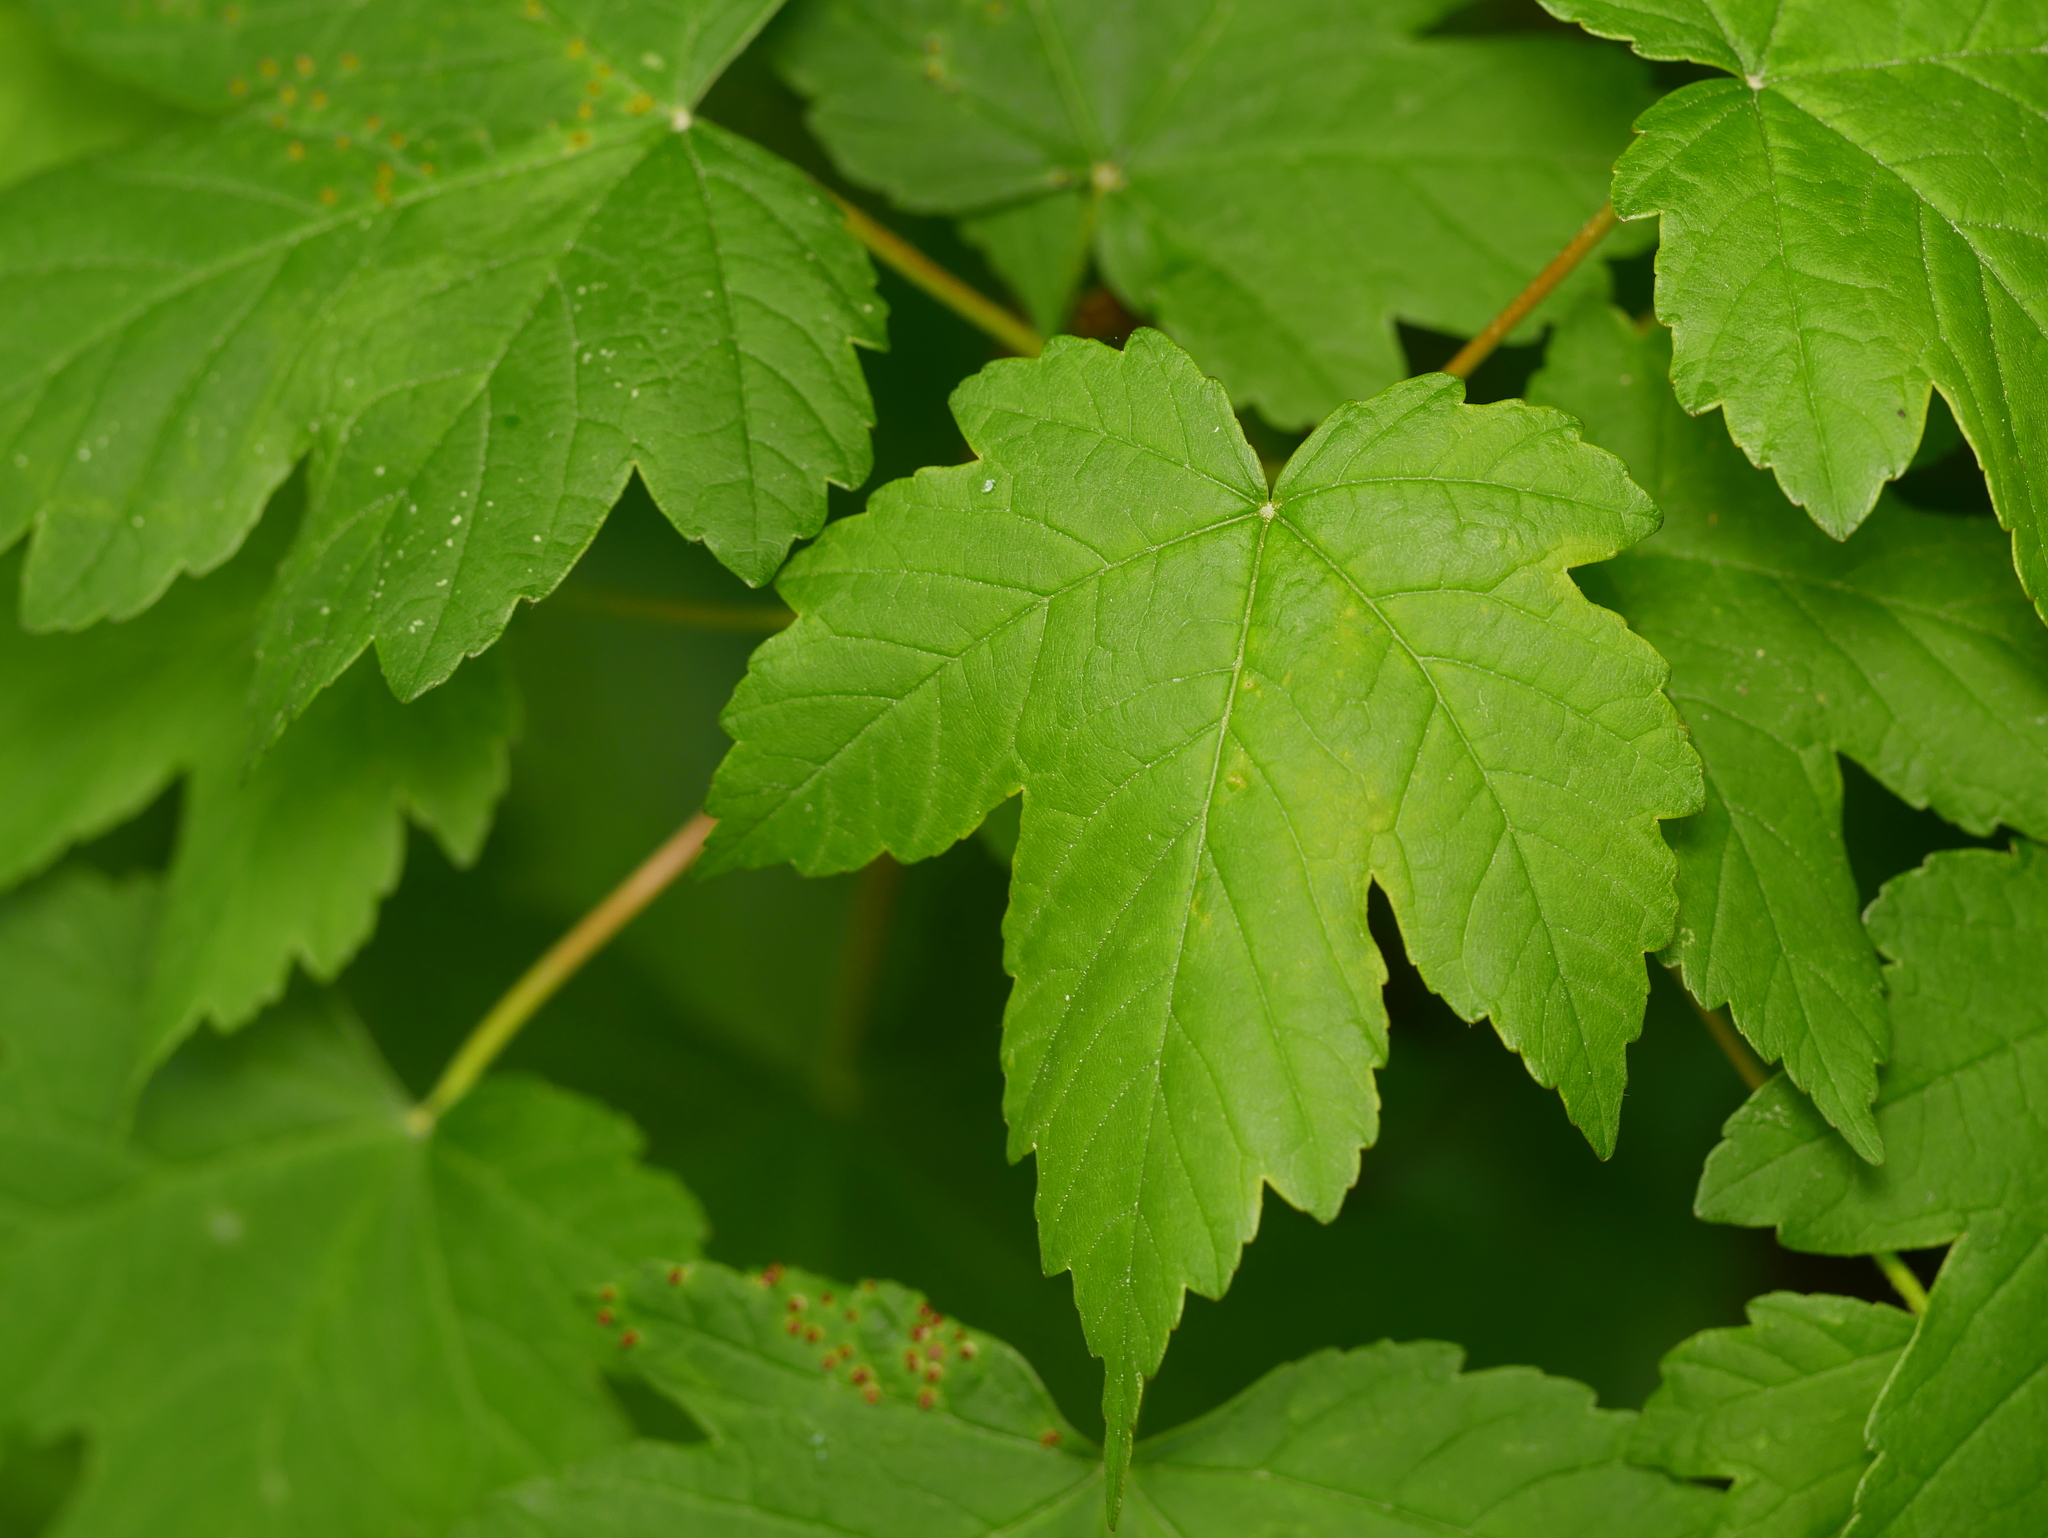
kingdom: Plantae
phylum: Tracheophyta
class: Magnoliopsida
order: Sapindales
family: Sapindaceae
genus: Acer
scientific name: Acer pseudoplatanus
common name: Sycamore
